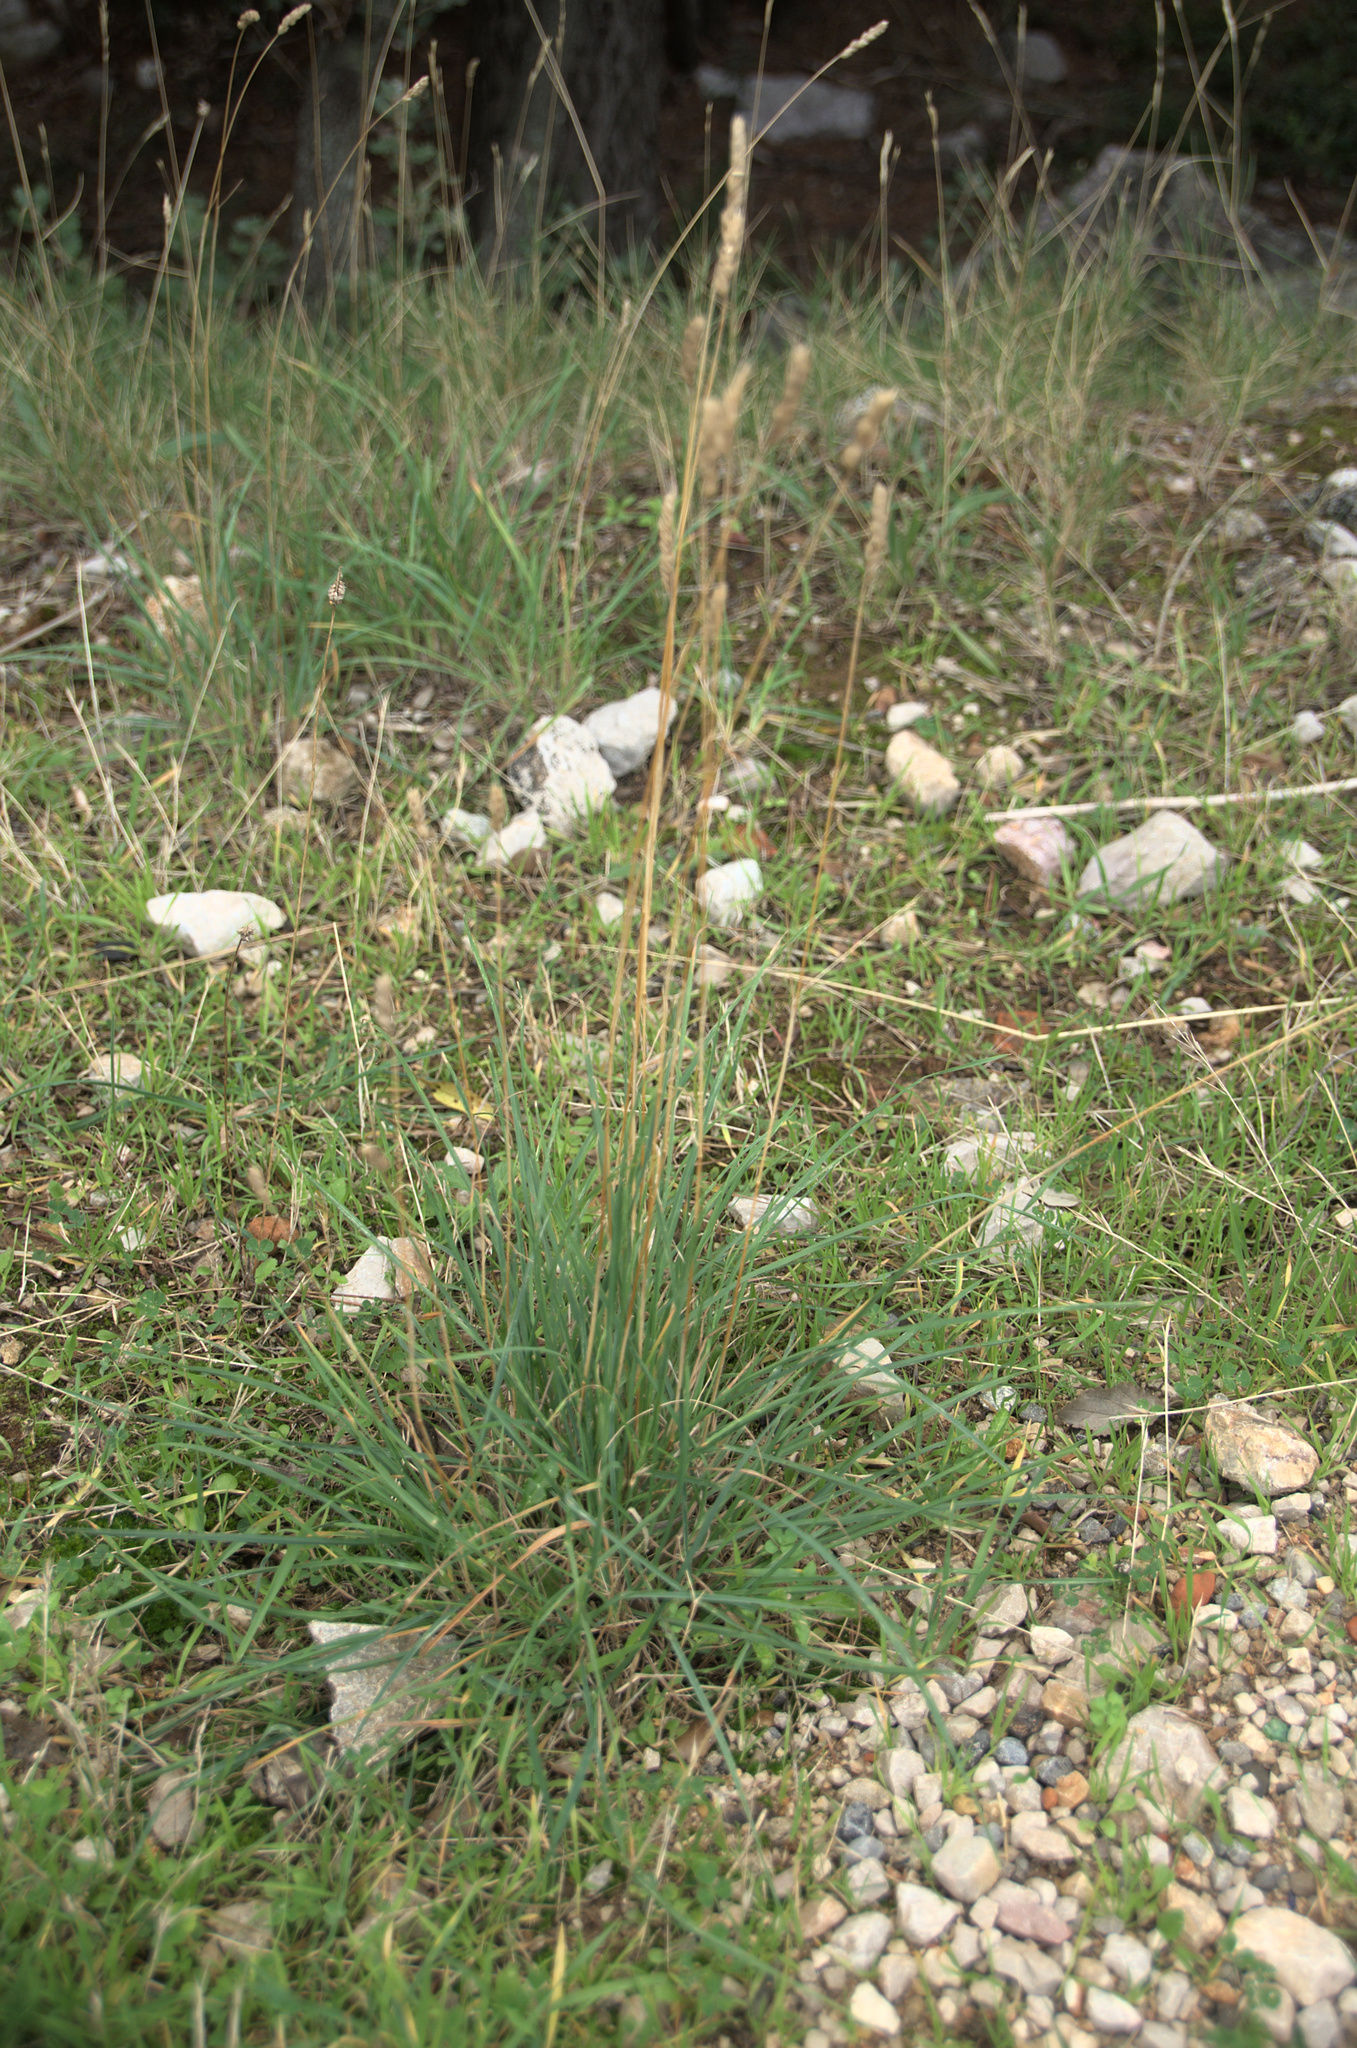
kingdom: Plantae
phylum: Tracheophyta
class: Liliopsida
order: Poales
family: Poaceae
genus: Dactylis
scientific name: Dactylis glomerata
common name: Orchardgrass
